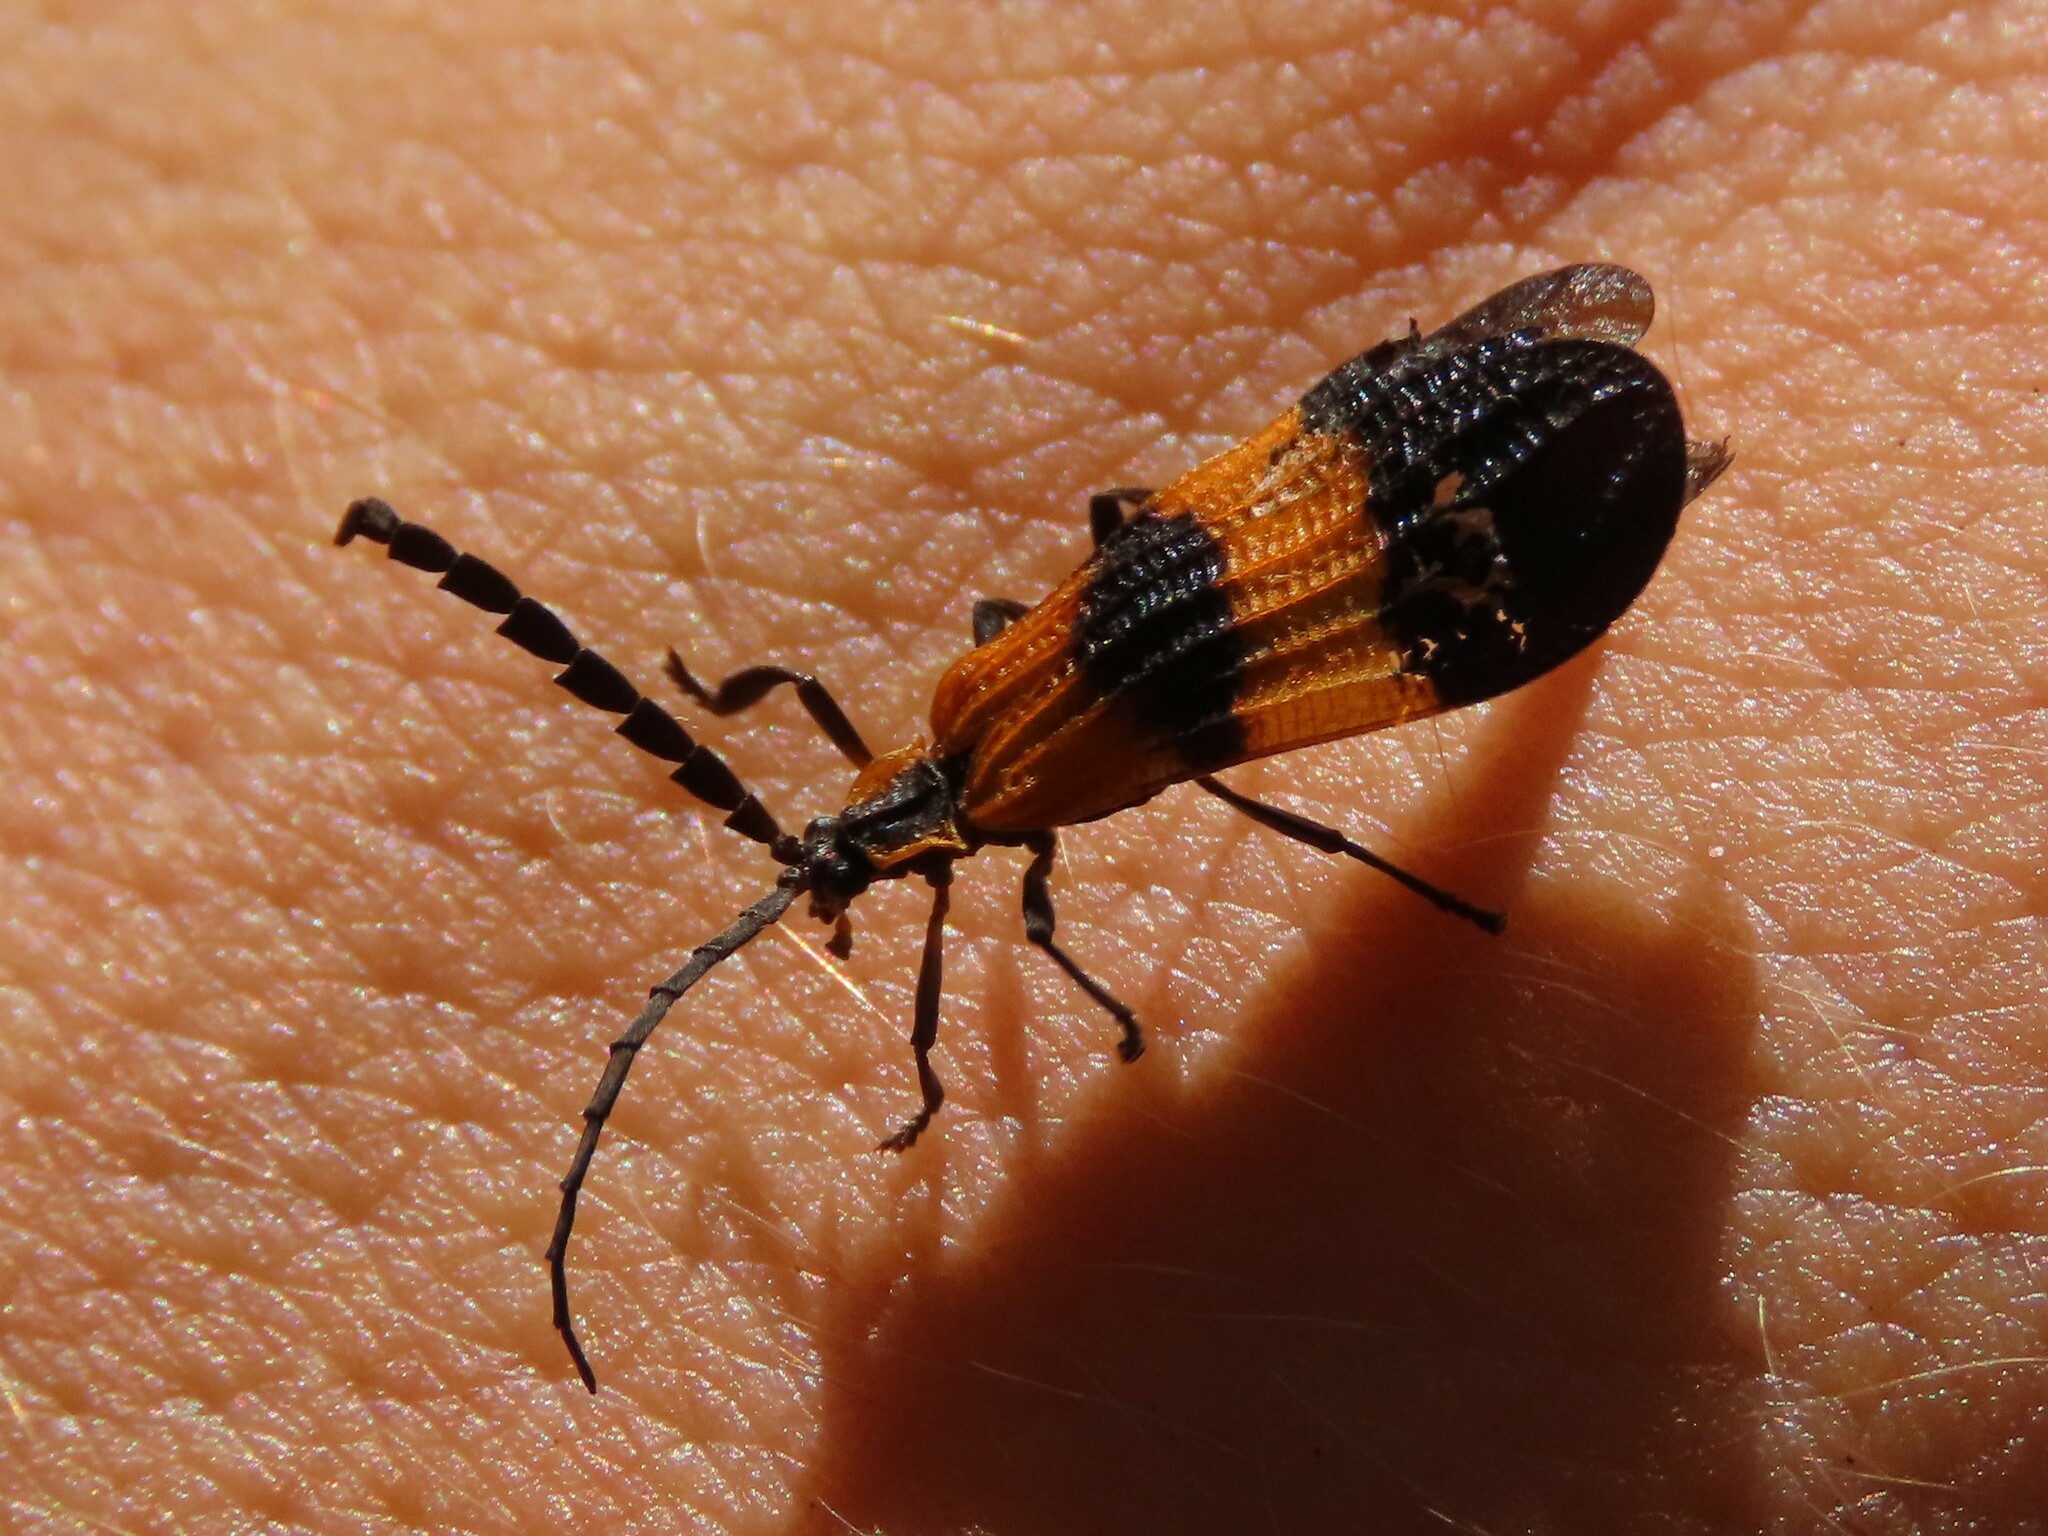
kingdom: Animalia
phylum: Arthropoda
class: Insecta
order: Coleoptera
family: Lycidae
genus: Calopteron
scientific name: Calopteron terminale
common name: End band net-winged beetle
